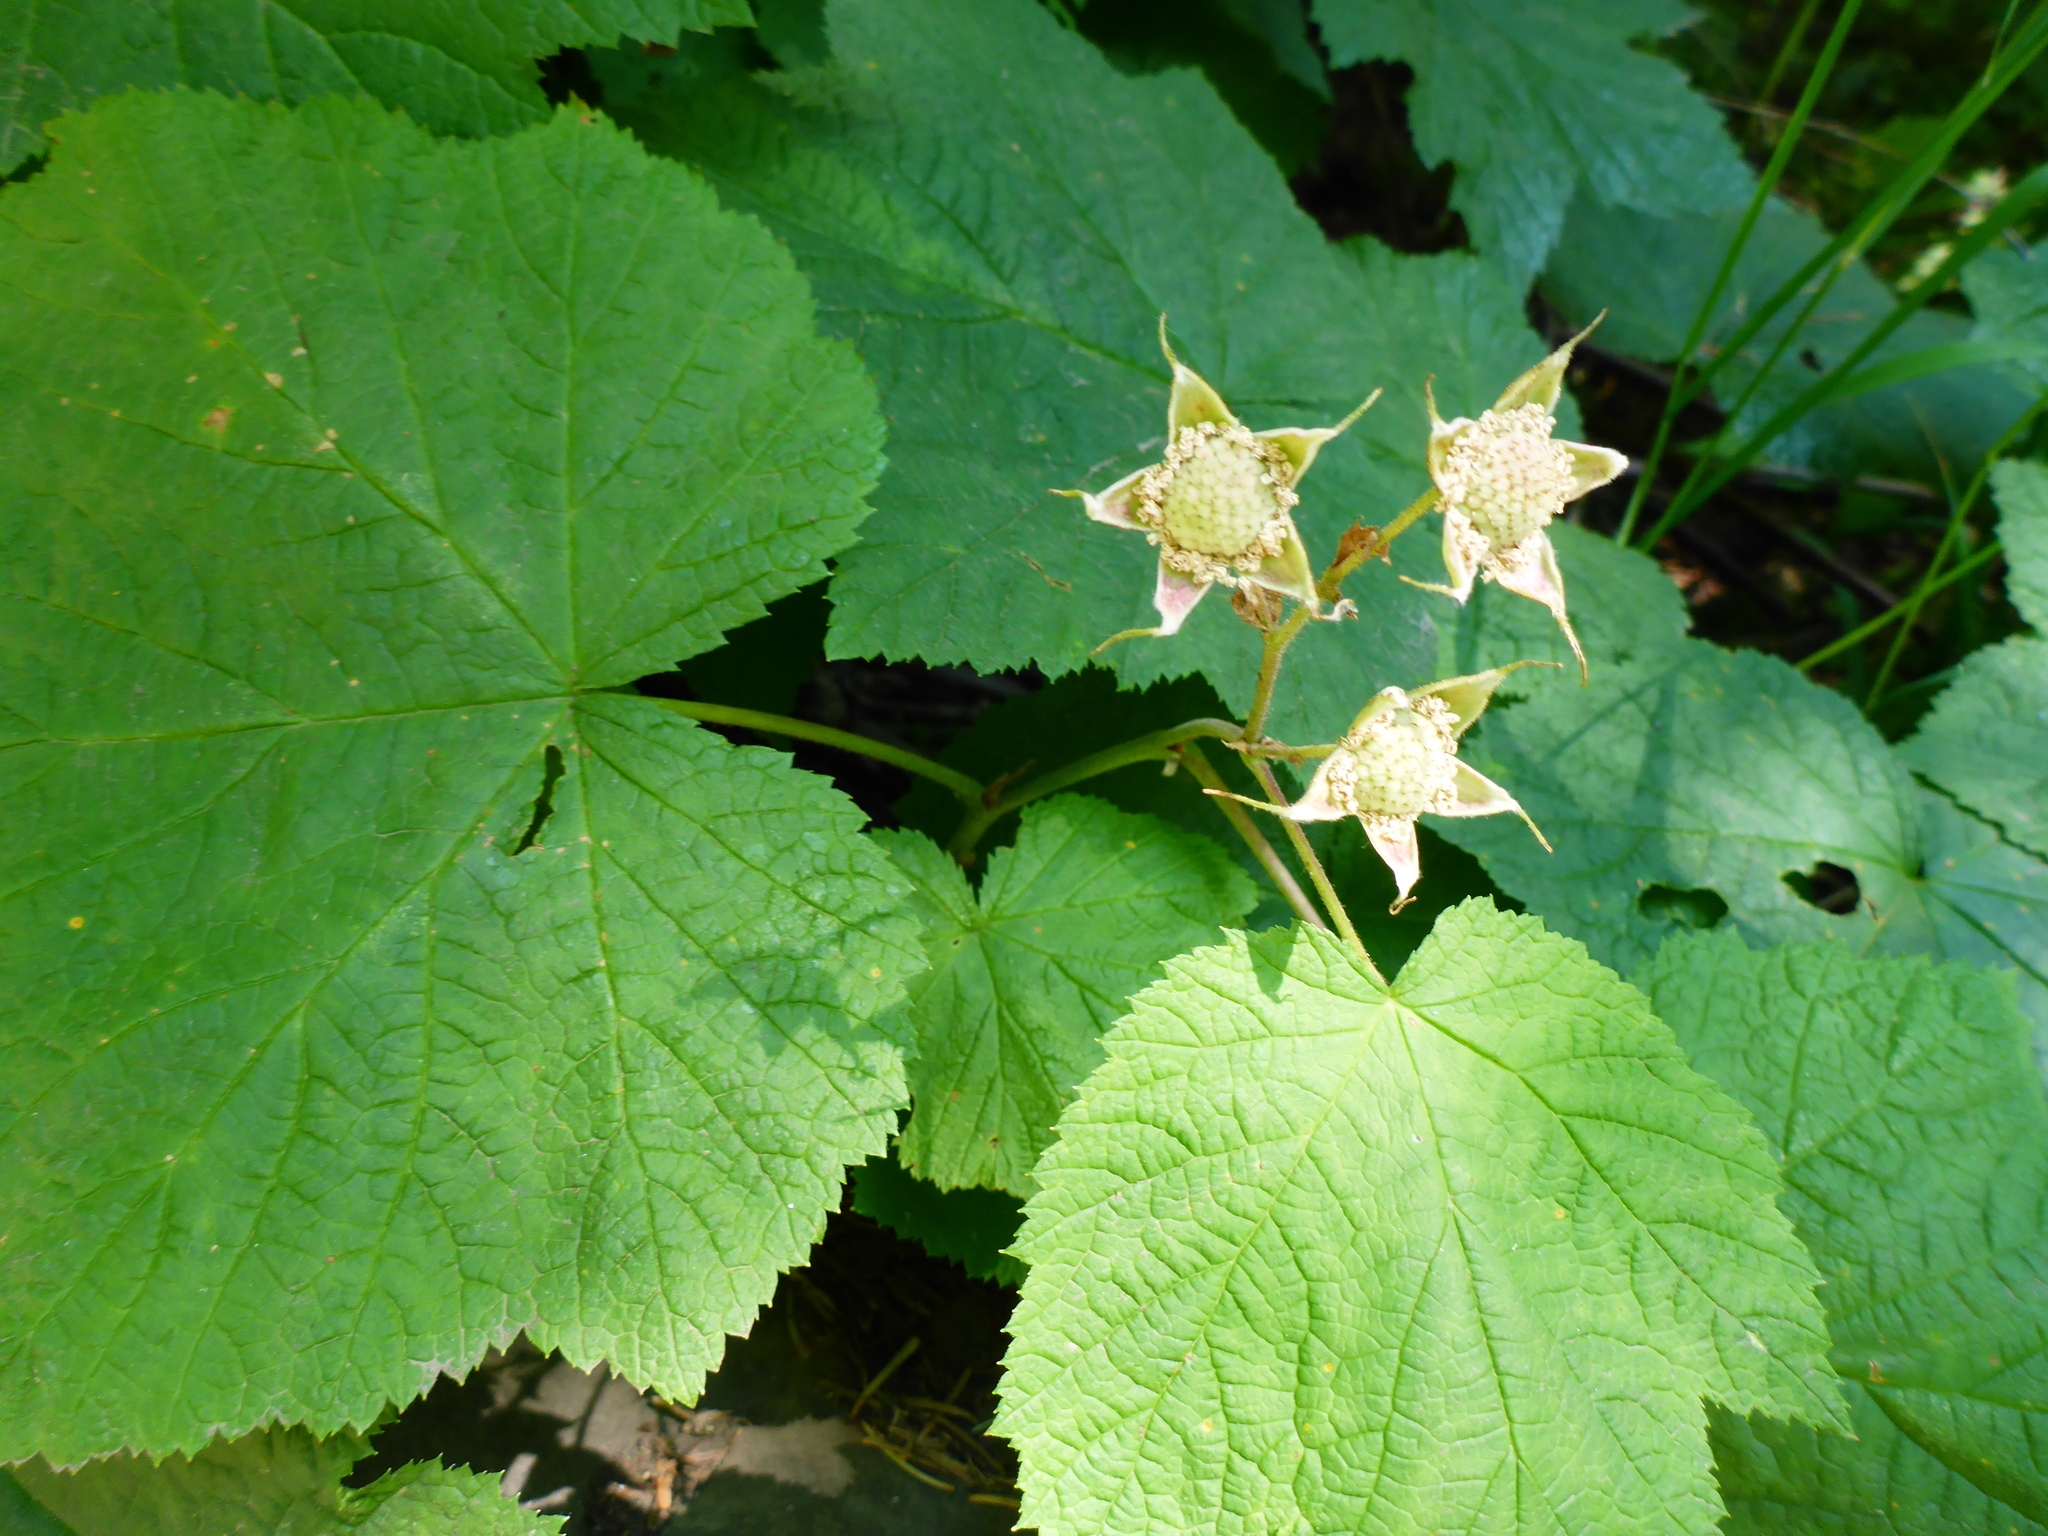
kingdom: Plantae
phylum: Tracheophyta
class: Magnoliopsida
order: Rosales
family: Rosaceae
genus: Rubus
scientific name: Rubus parviflorus
